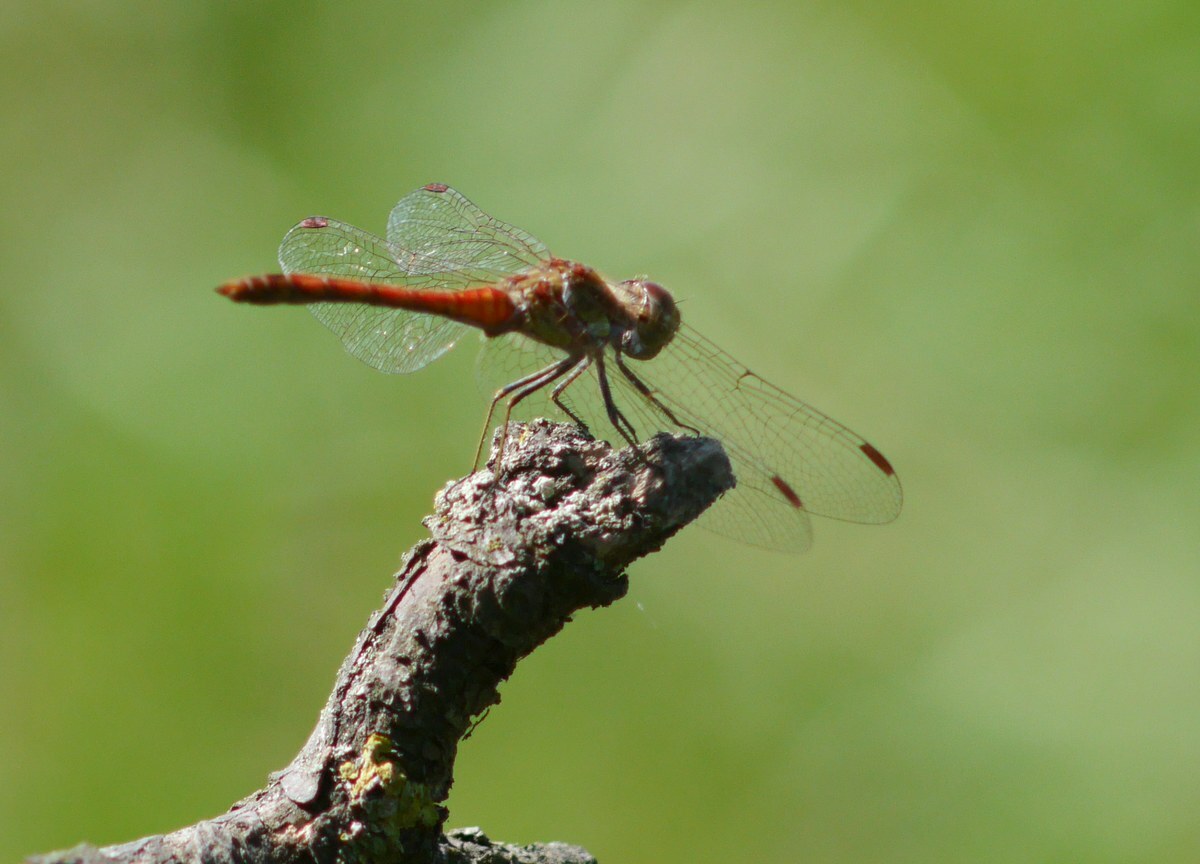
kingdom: Animalia
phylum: Arthropoda
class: Insecta
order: Odonata
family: Libellulidae
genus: Sympetrum
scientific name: Sympetrum striolatum
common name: Common darter
